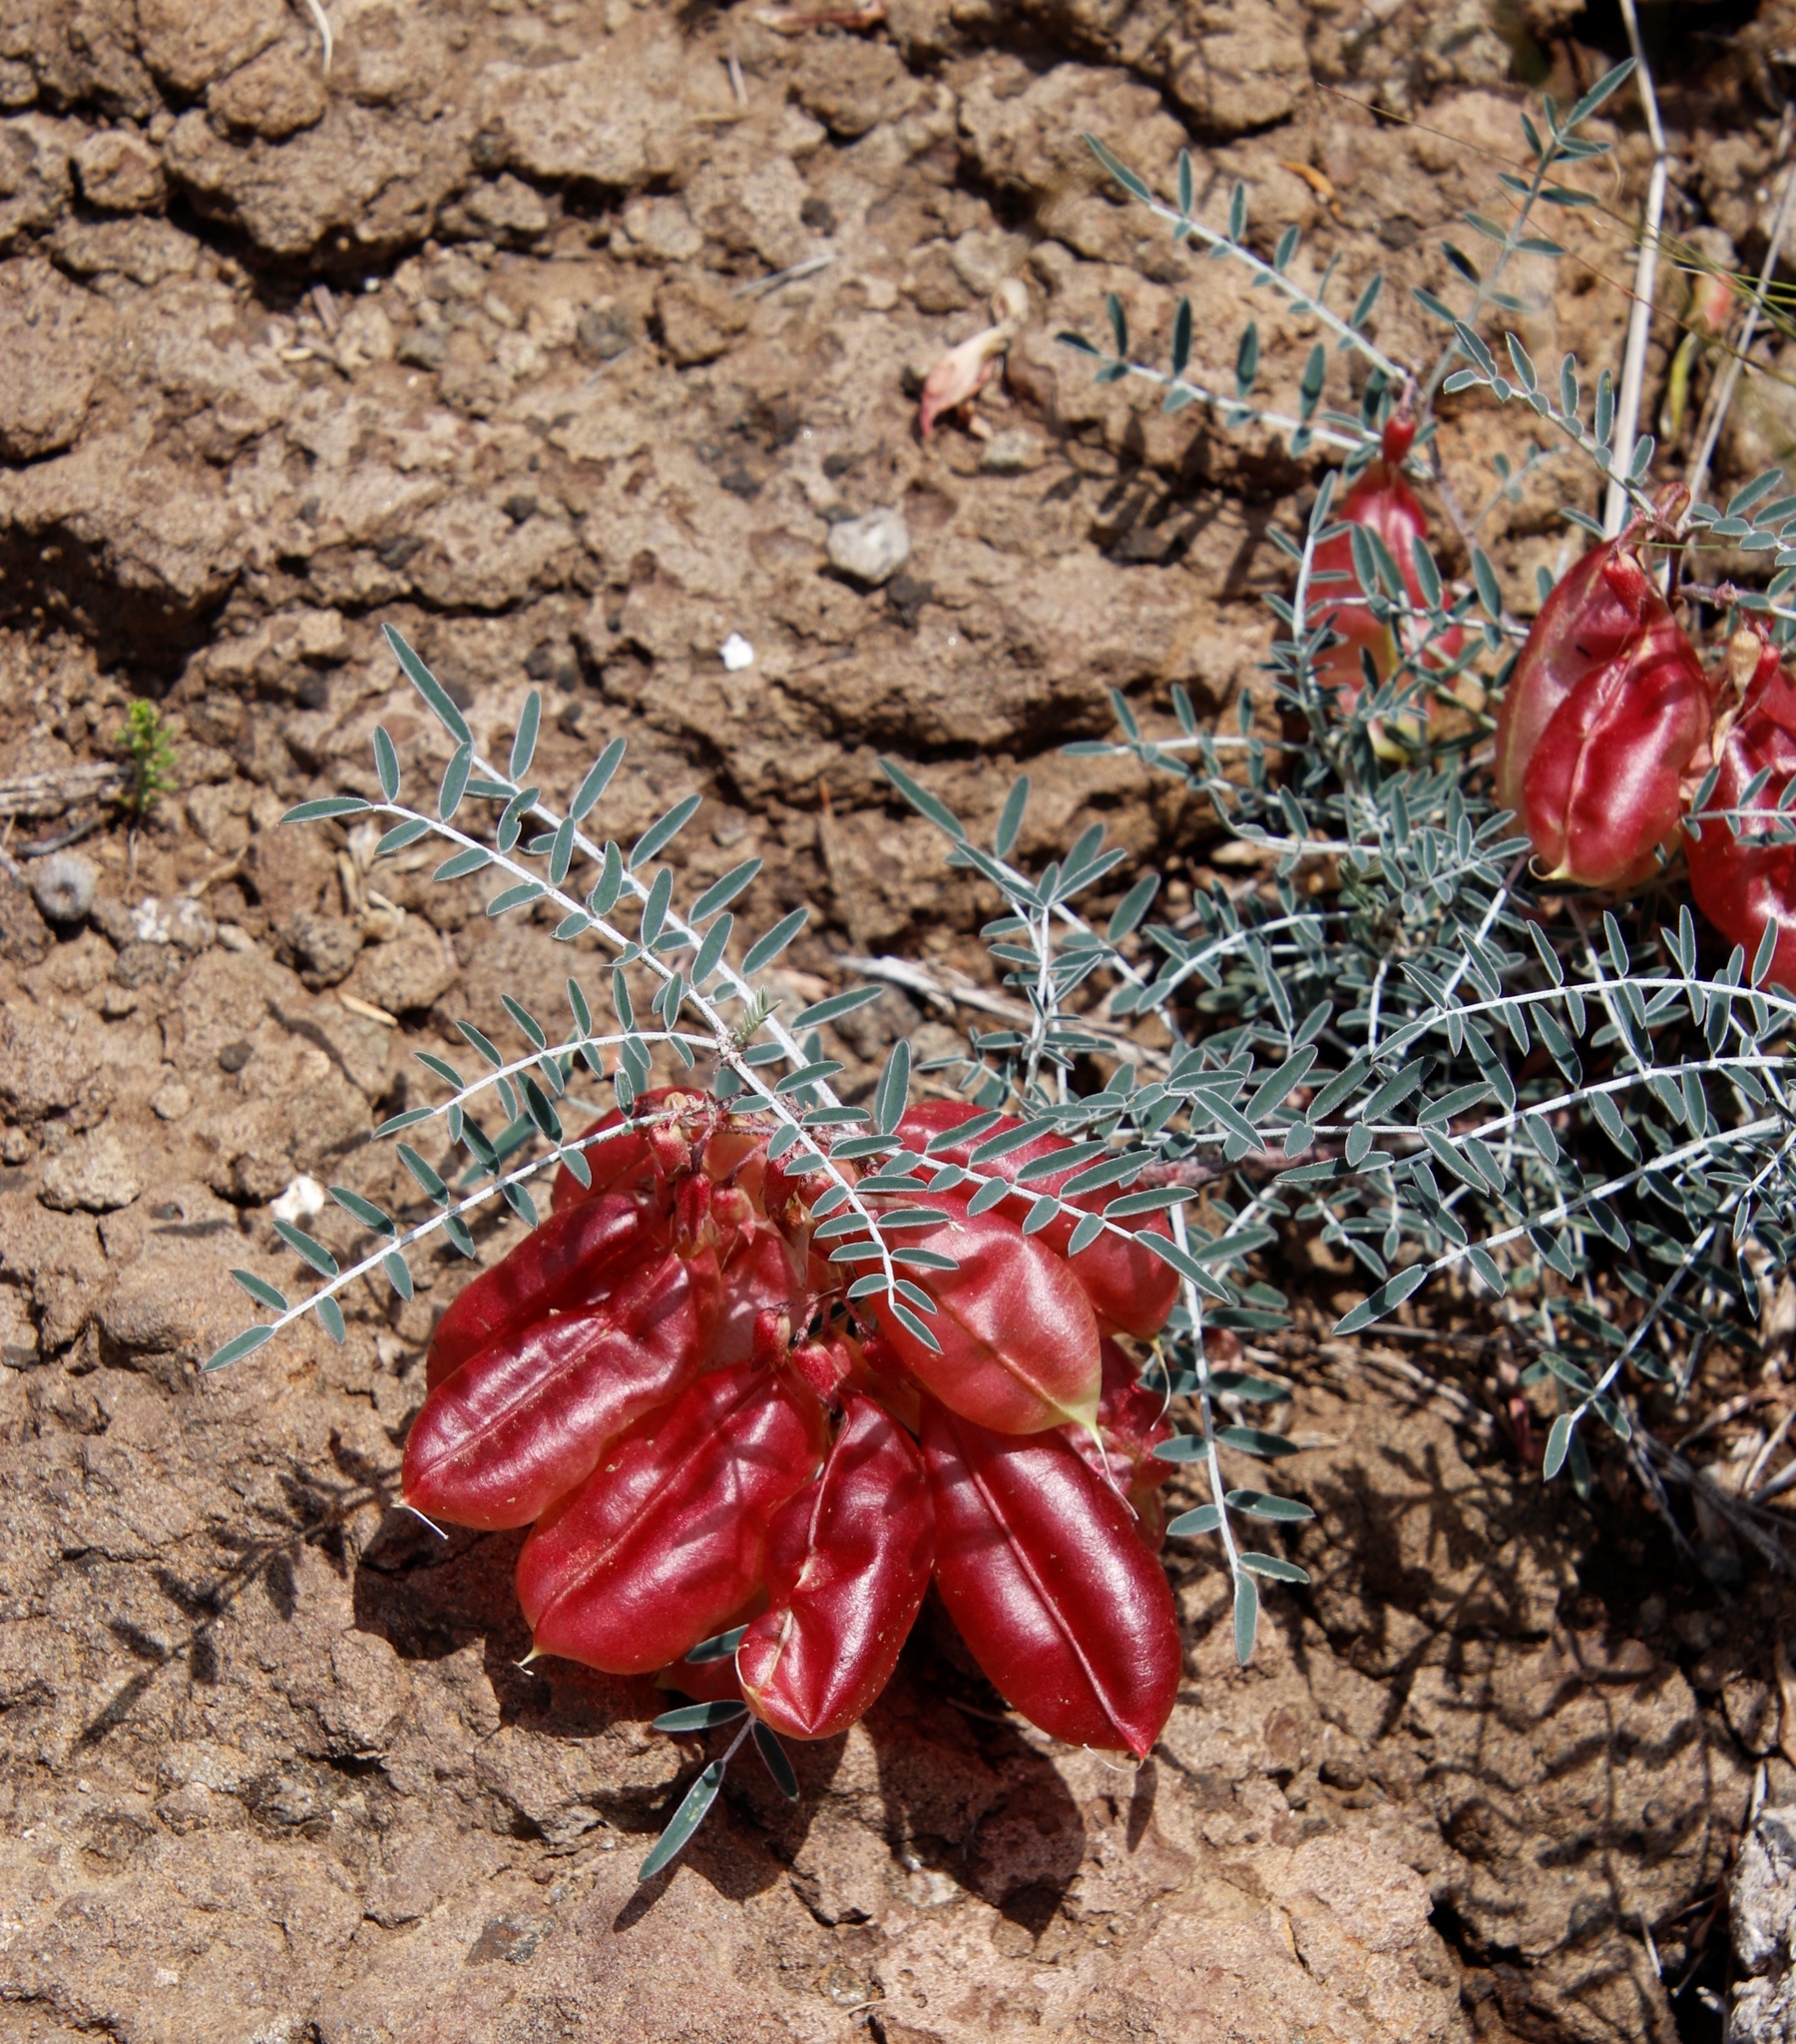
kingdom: Plantae
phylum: Tracheophyta
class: Magnoliopsida
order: Fabales
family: Fabaceae
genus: Lessertia
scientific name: Lessertia frutescens
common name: Balloon-pea
